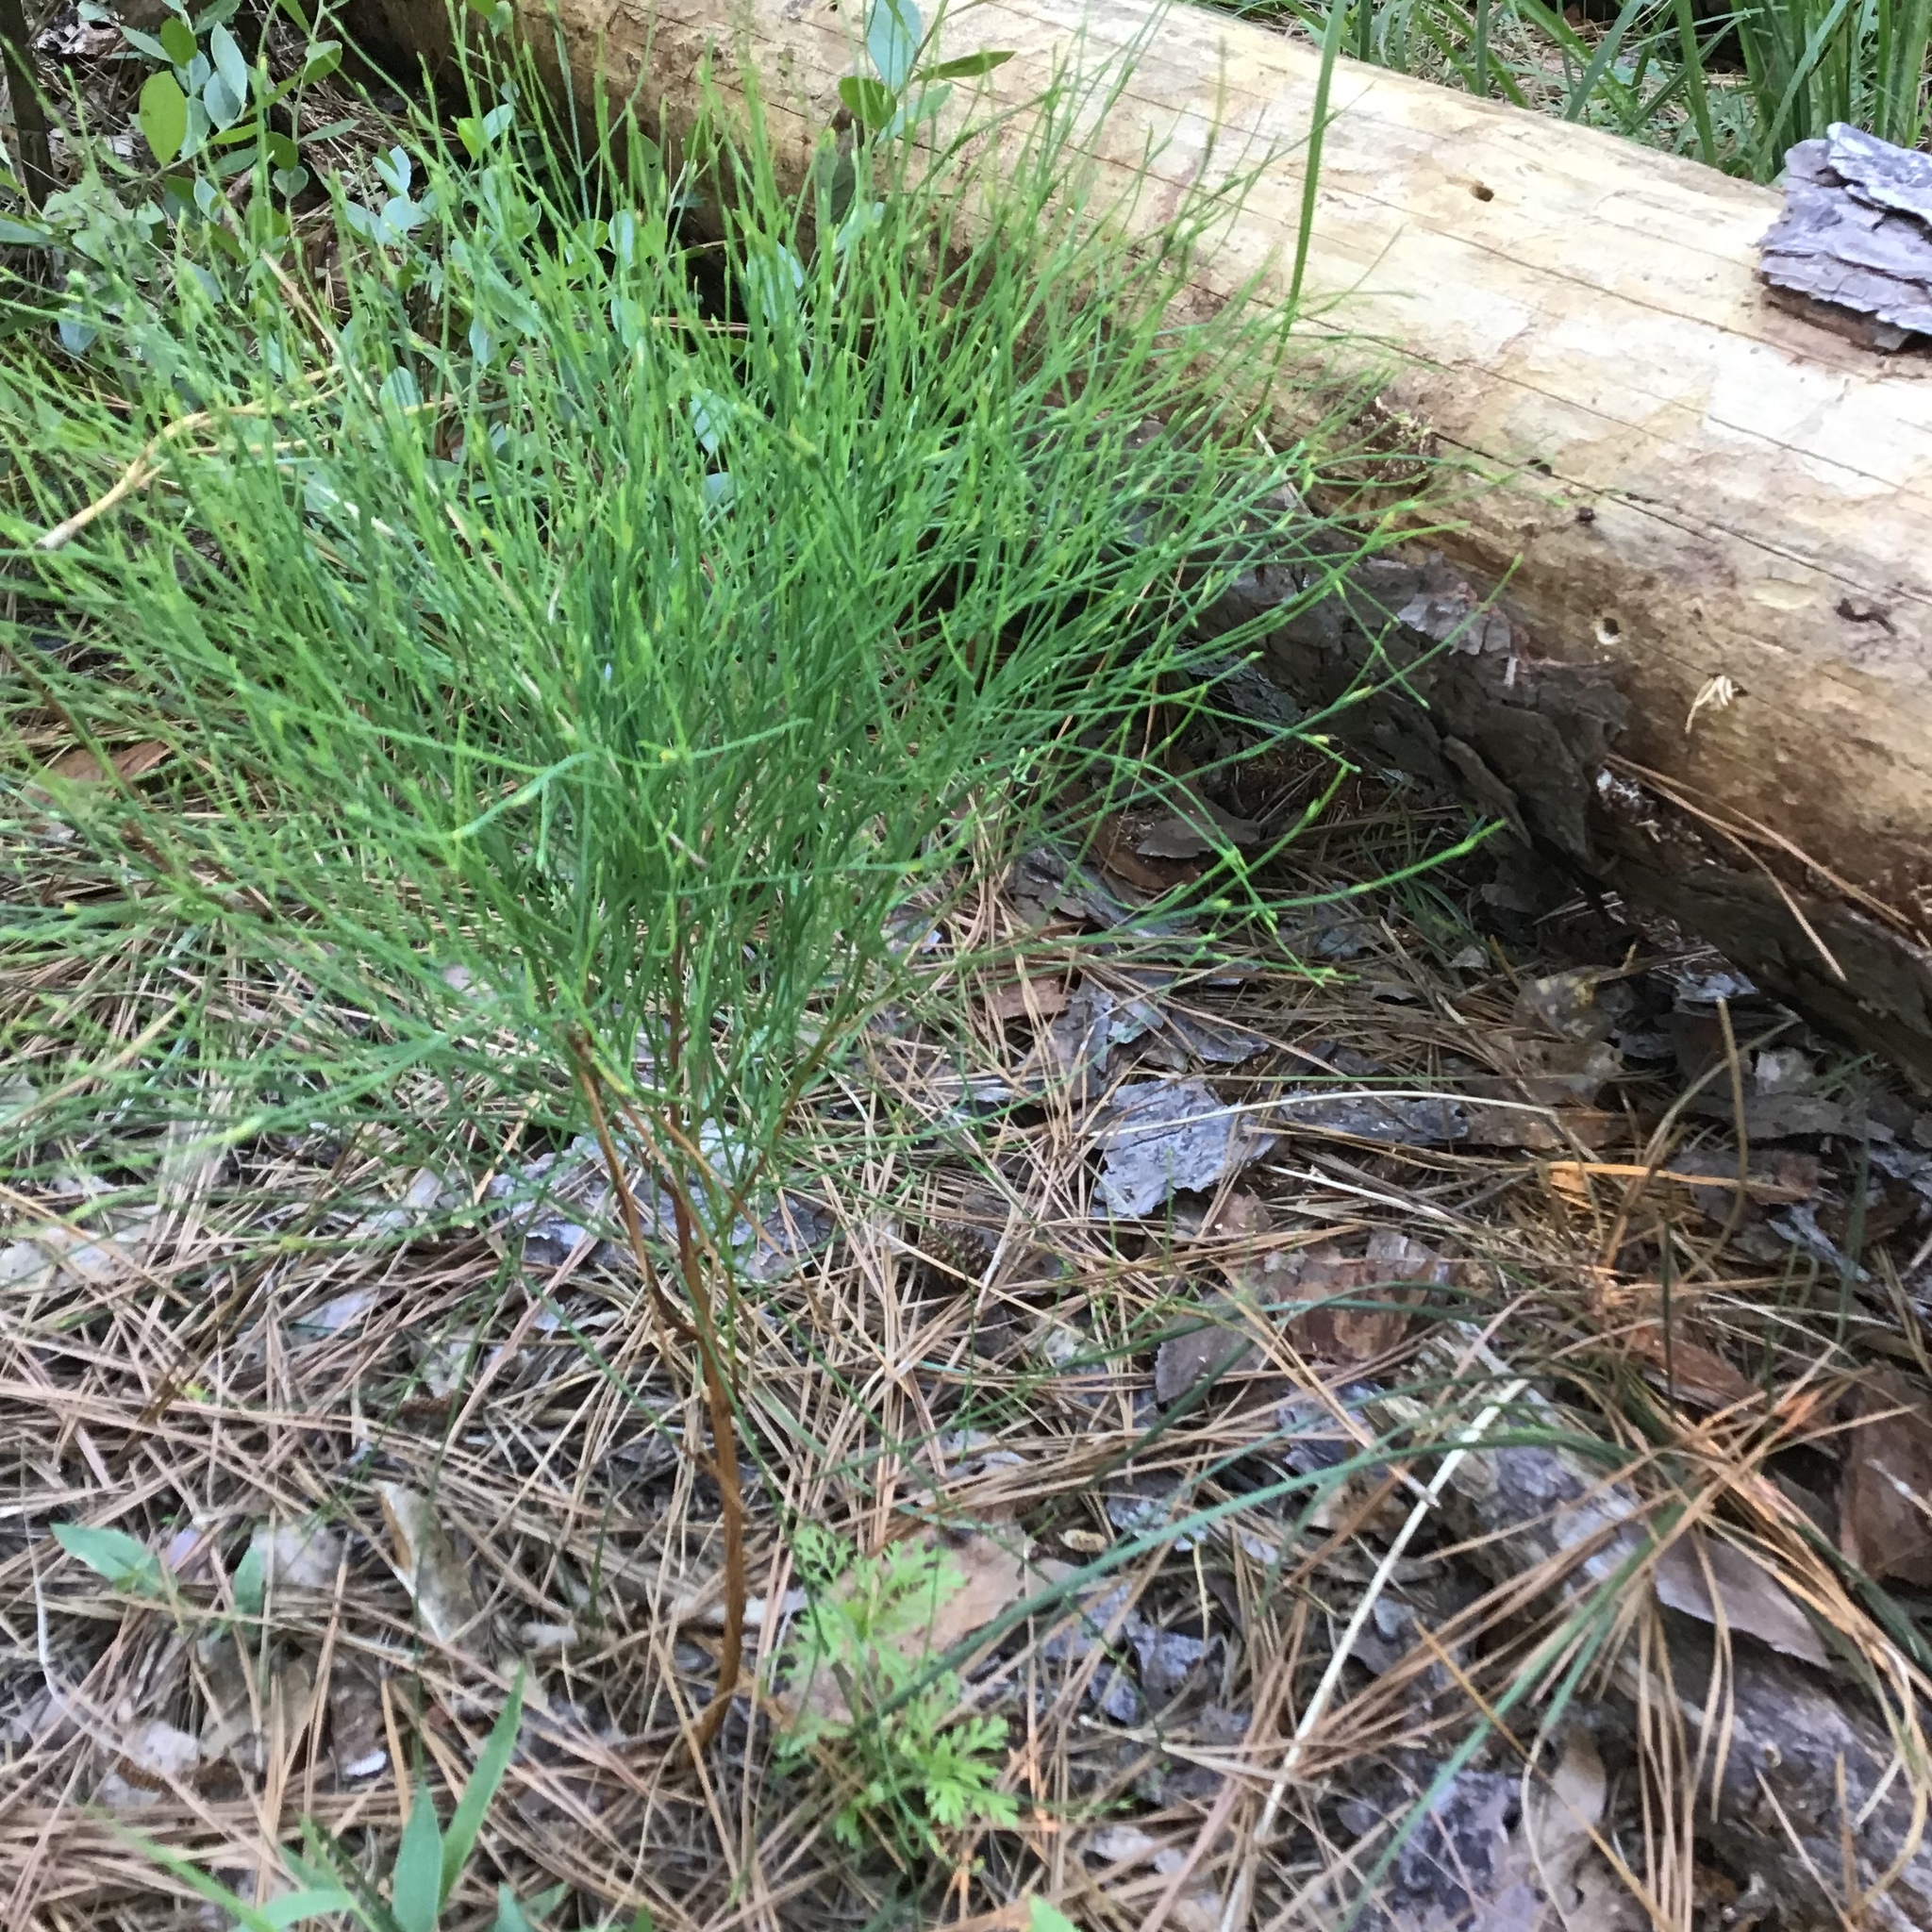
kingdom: Plantae
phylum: Tracheophyta
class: Magnoliopsida
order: Malpighiales
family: Hypericaceae
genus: Hypericum
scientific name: Hypericum gentianoides
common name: Gentian-leaved st. john's-wort
